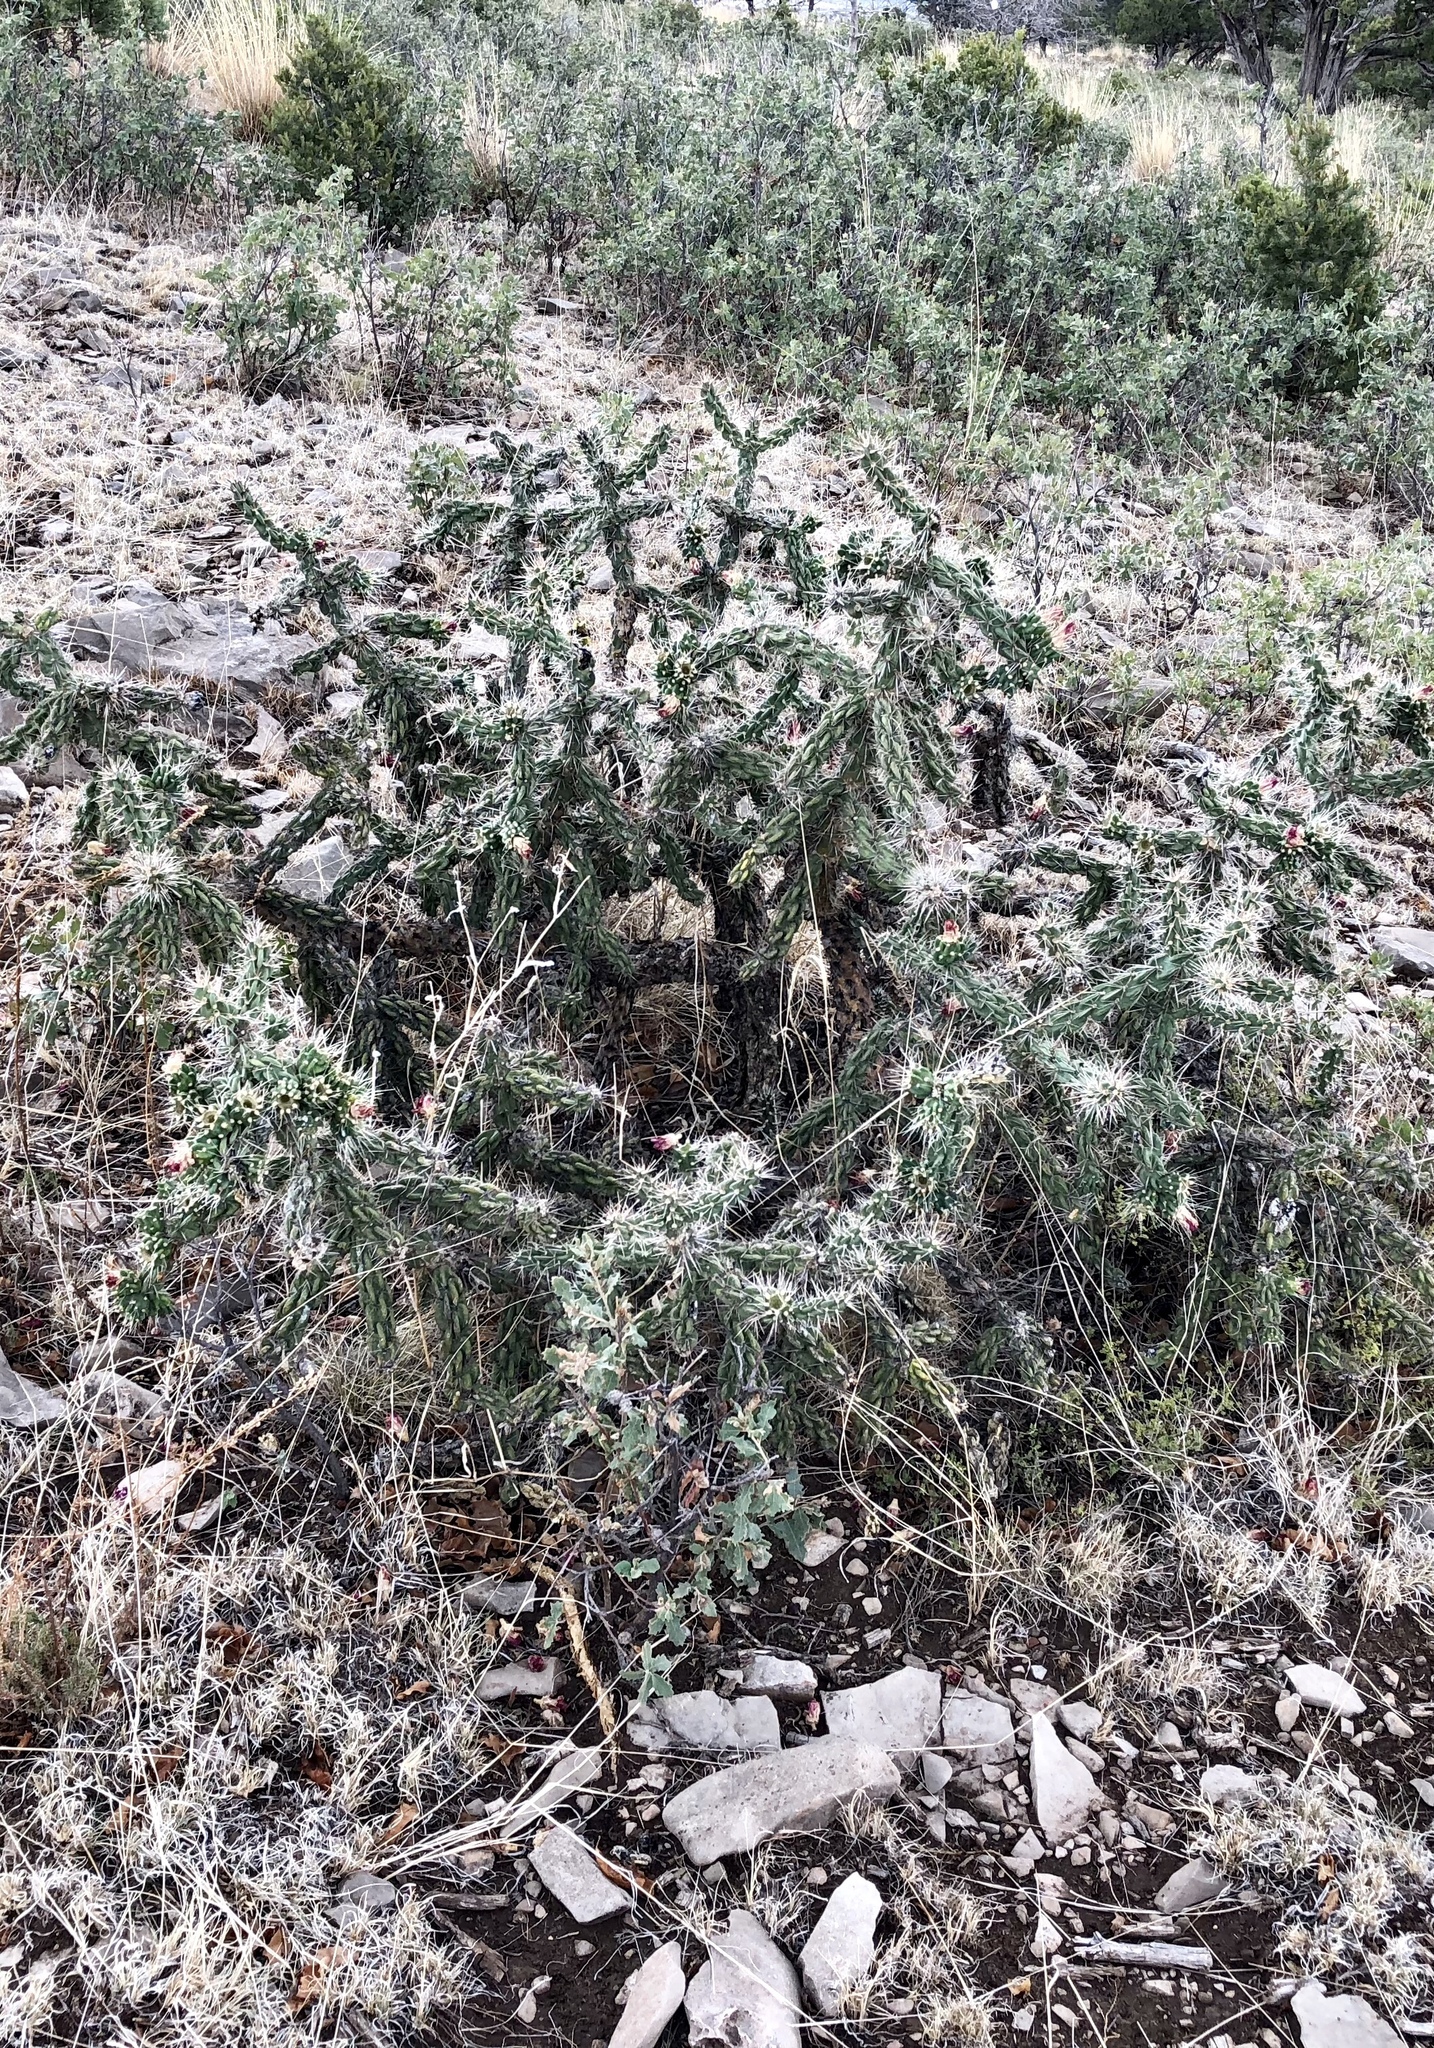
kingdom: Plantae
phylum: Tracheophyta
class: Magnoliopsida
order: Caryophyllales
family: Cactaceae
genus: Cylindropuntia
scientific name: Cylindropuntia imbricata
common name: Candelabrum cactus
